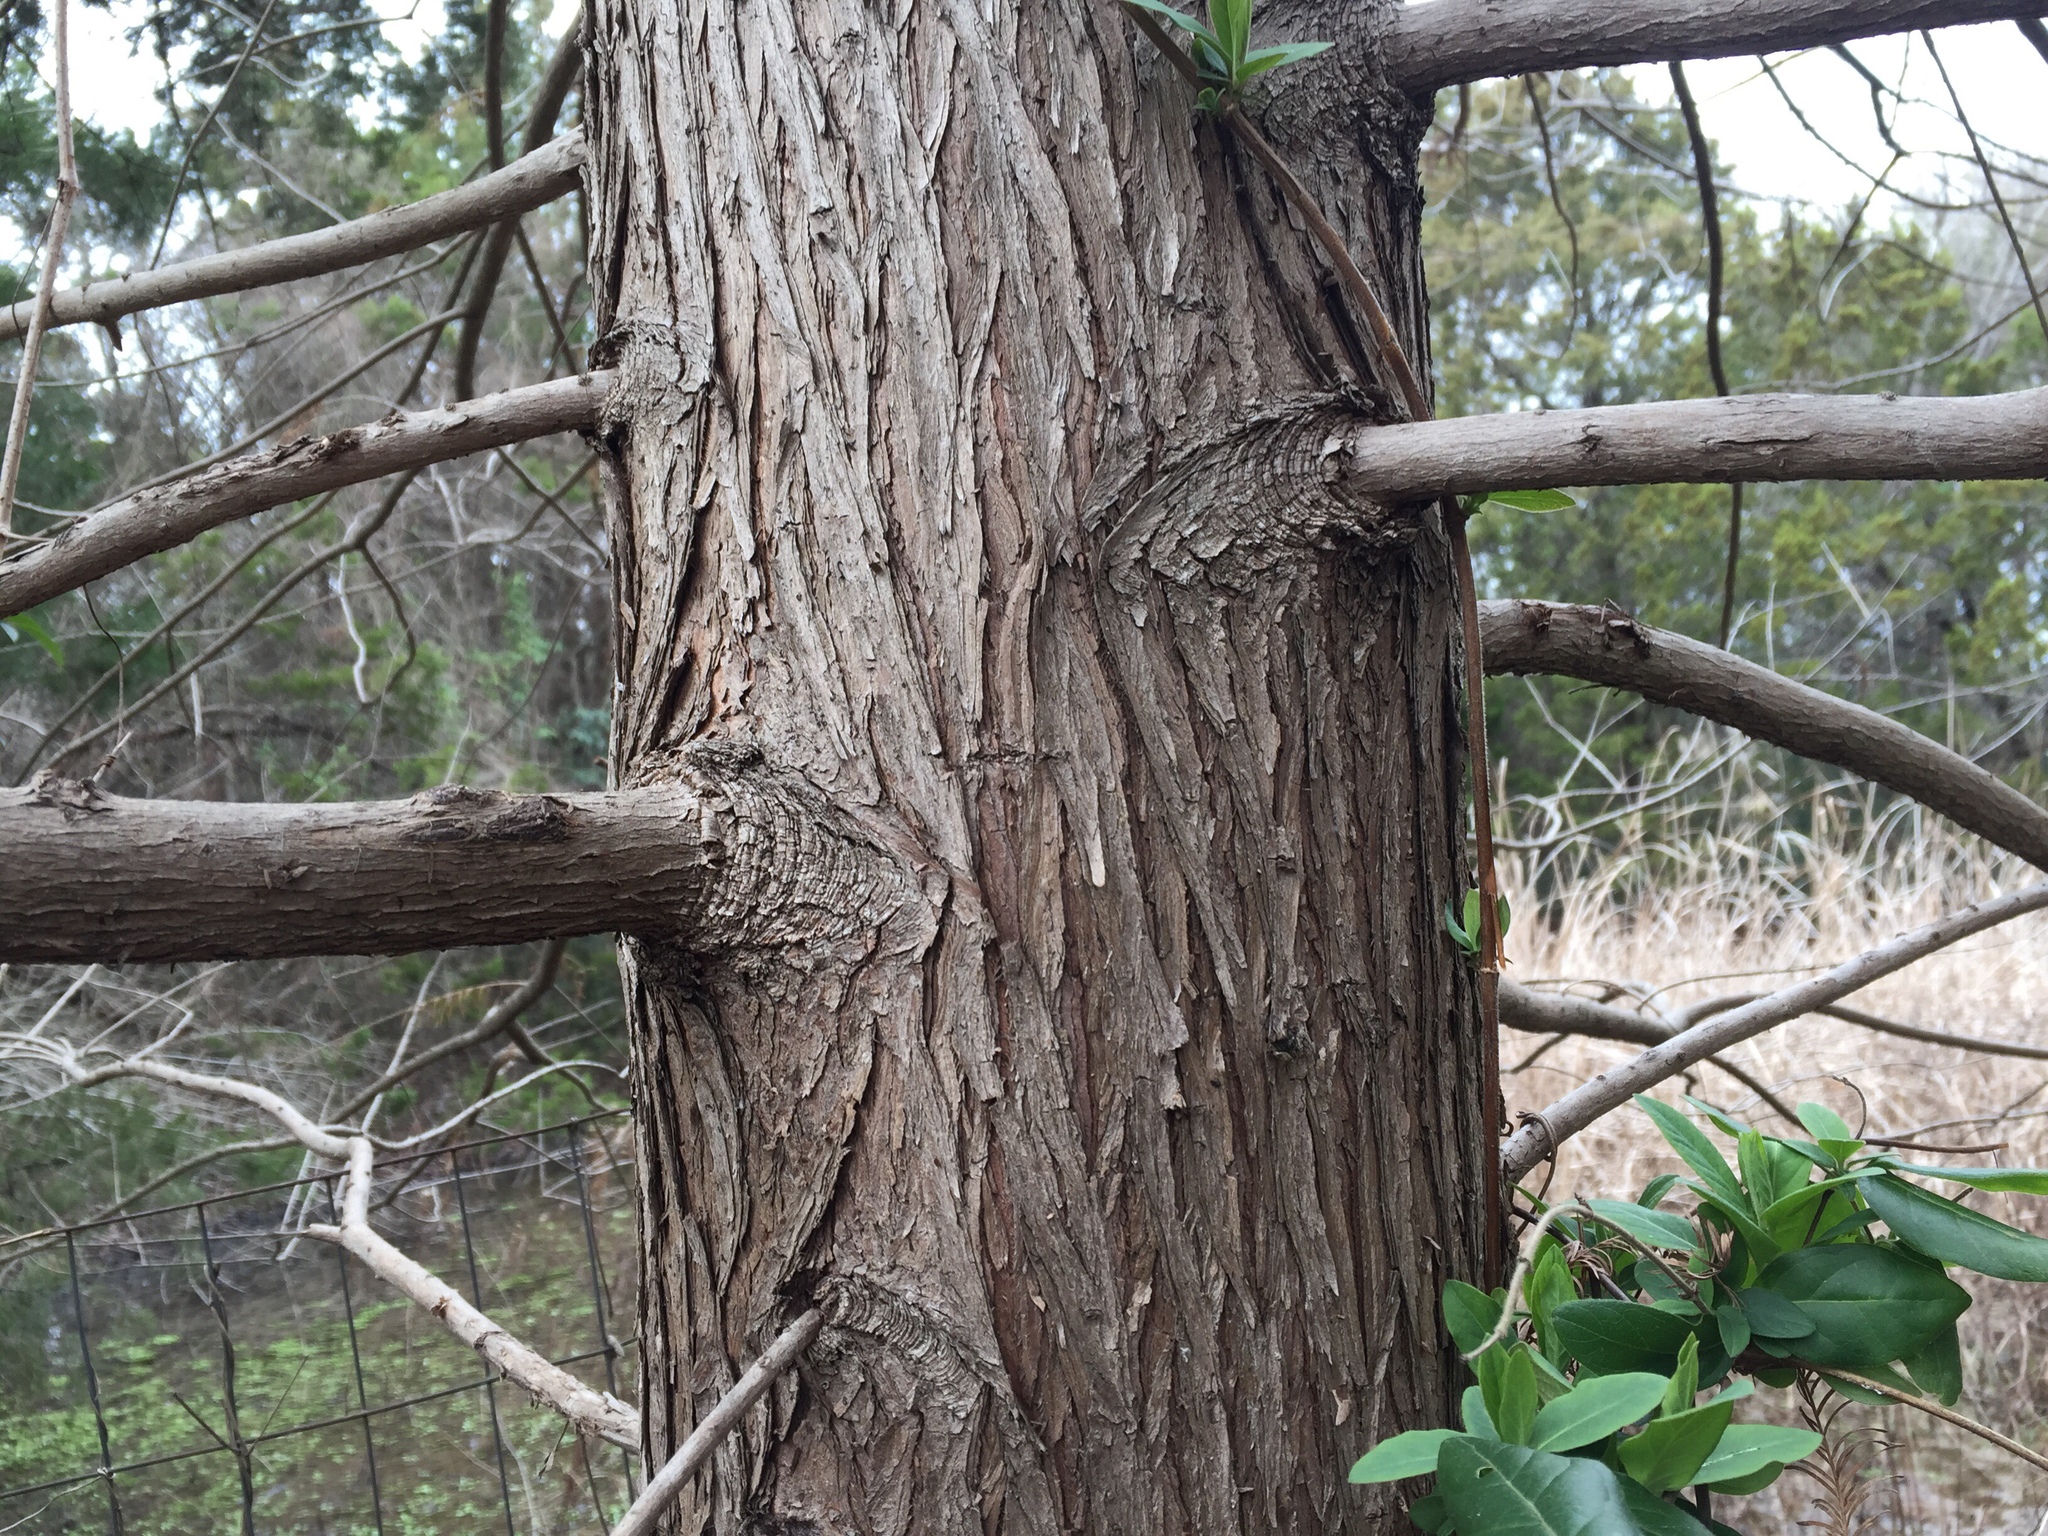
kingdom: Plantae
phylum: Tracheophyta
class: Pinopsida
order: Pinales
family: Cupressaceae
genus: Taxodium
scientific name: Taxodium distichum
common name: Bald cypress
